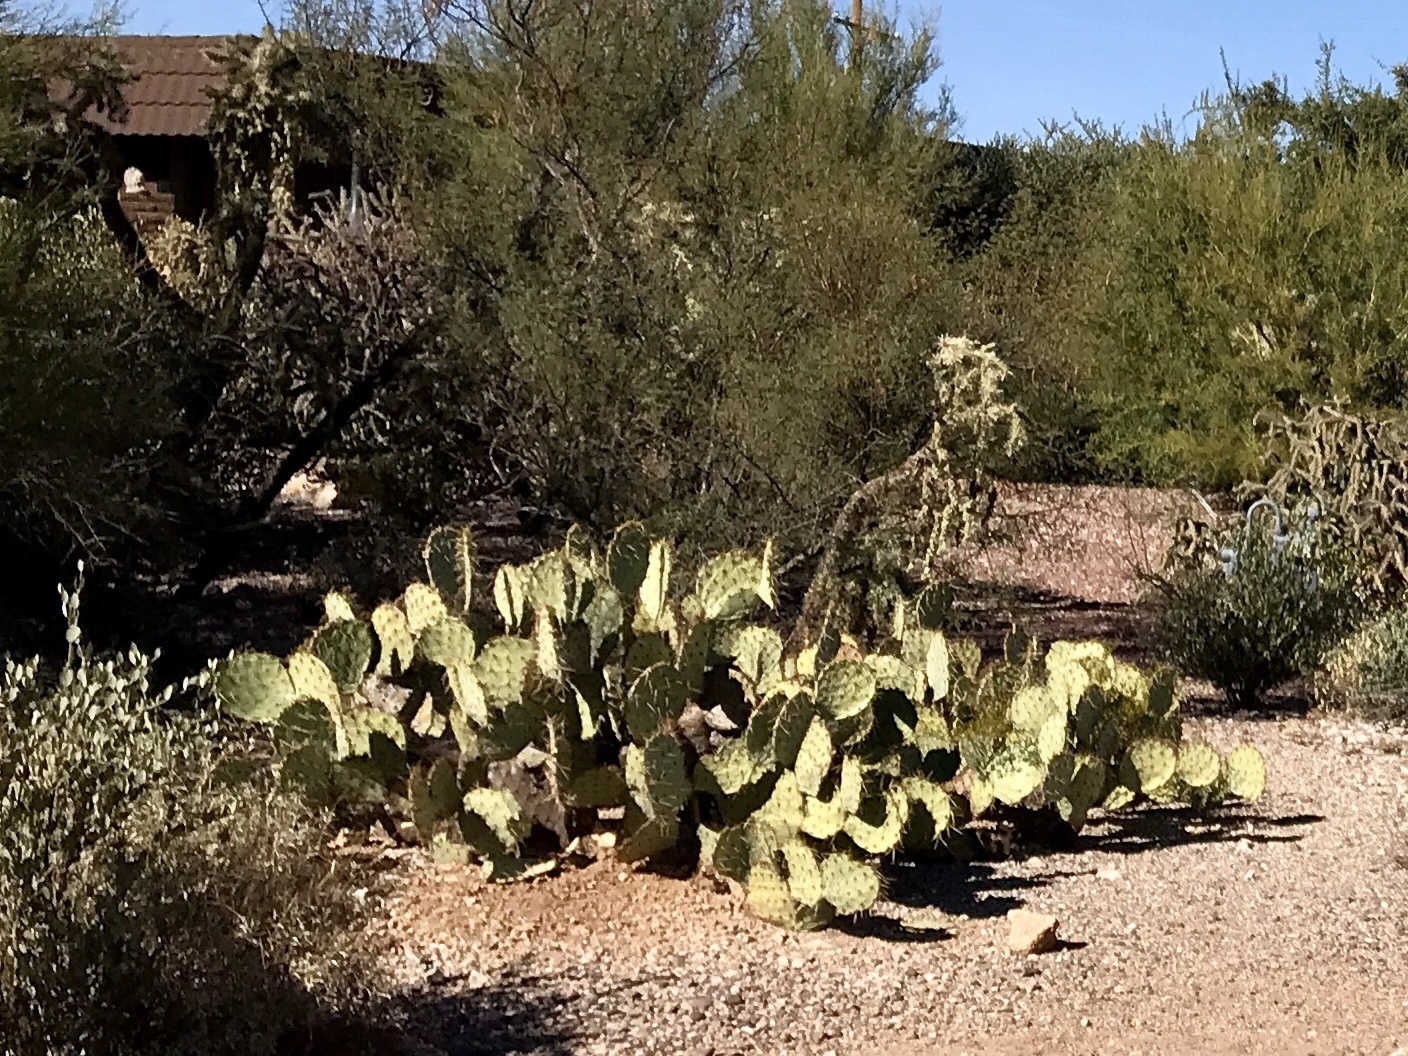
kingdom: Plantae
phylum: Tracheophyta
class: Magnoliopsida
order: Caryophyllales
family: Cactaceae
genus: Opuntia
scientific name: Opuntia phaeacantha
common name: New mexico prickly-pear
